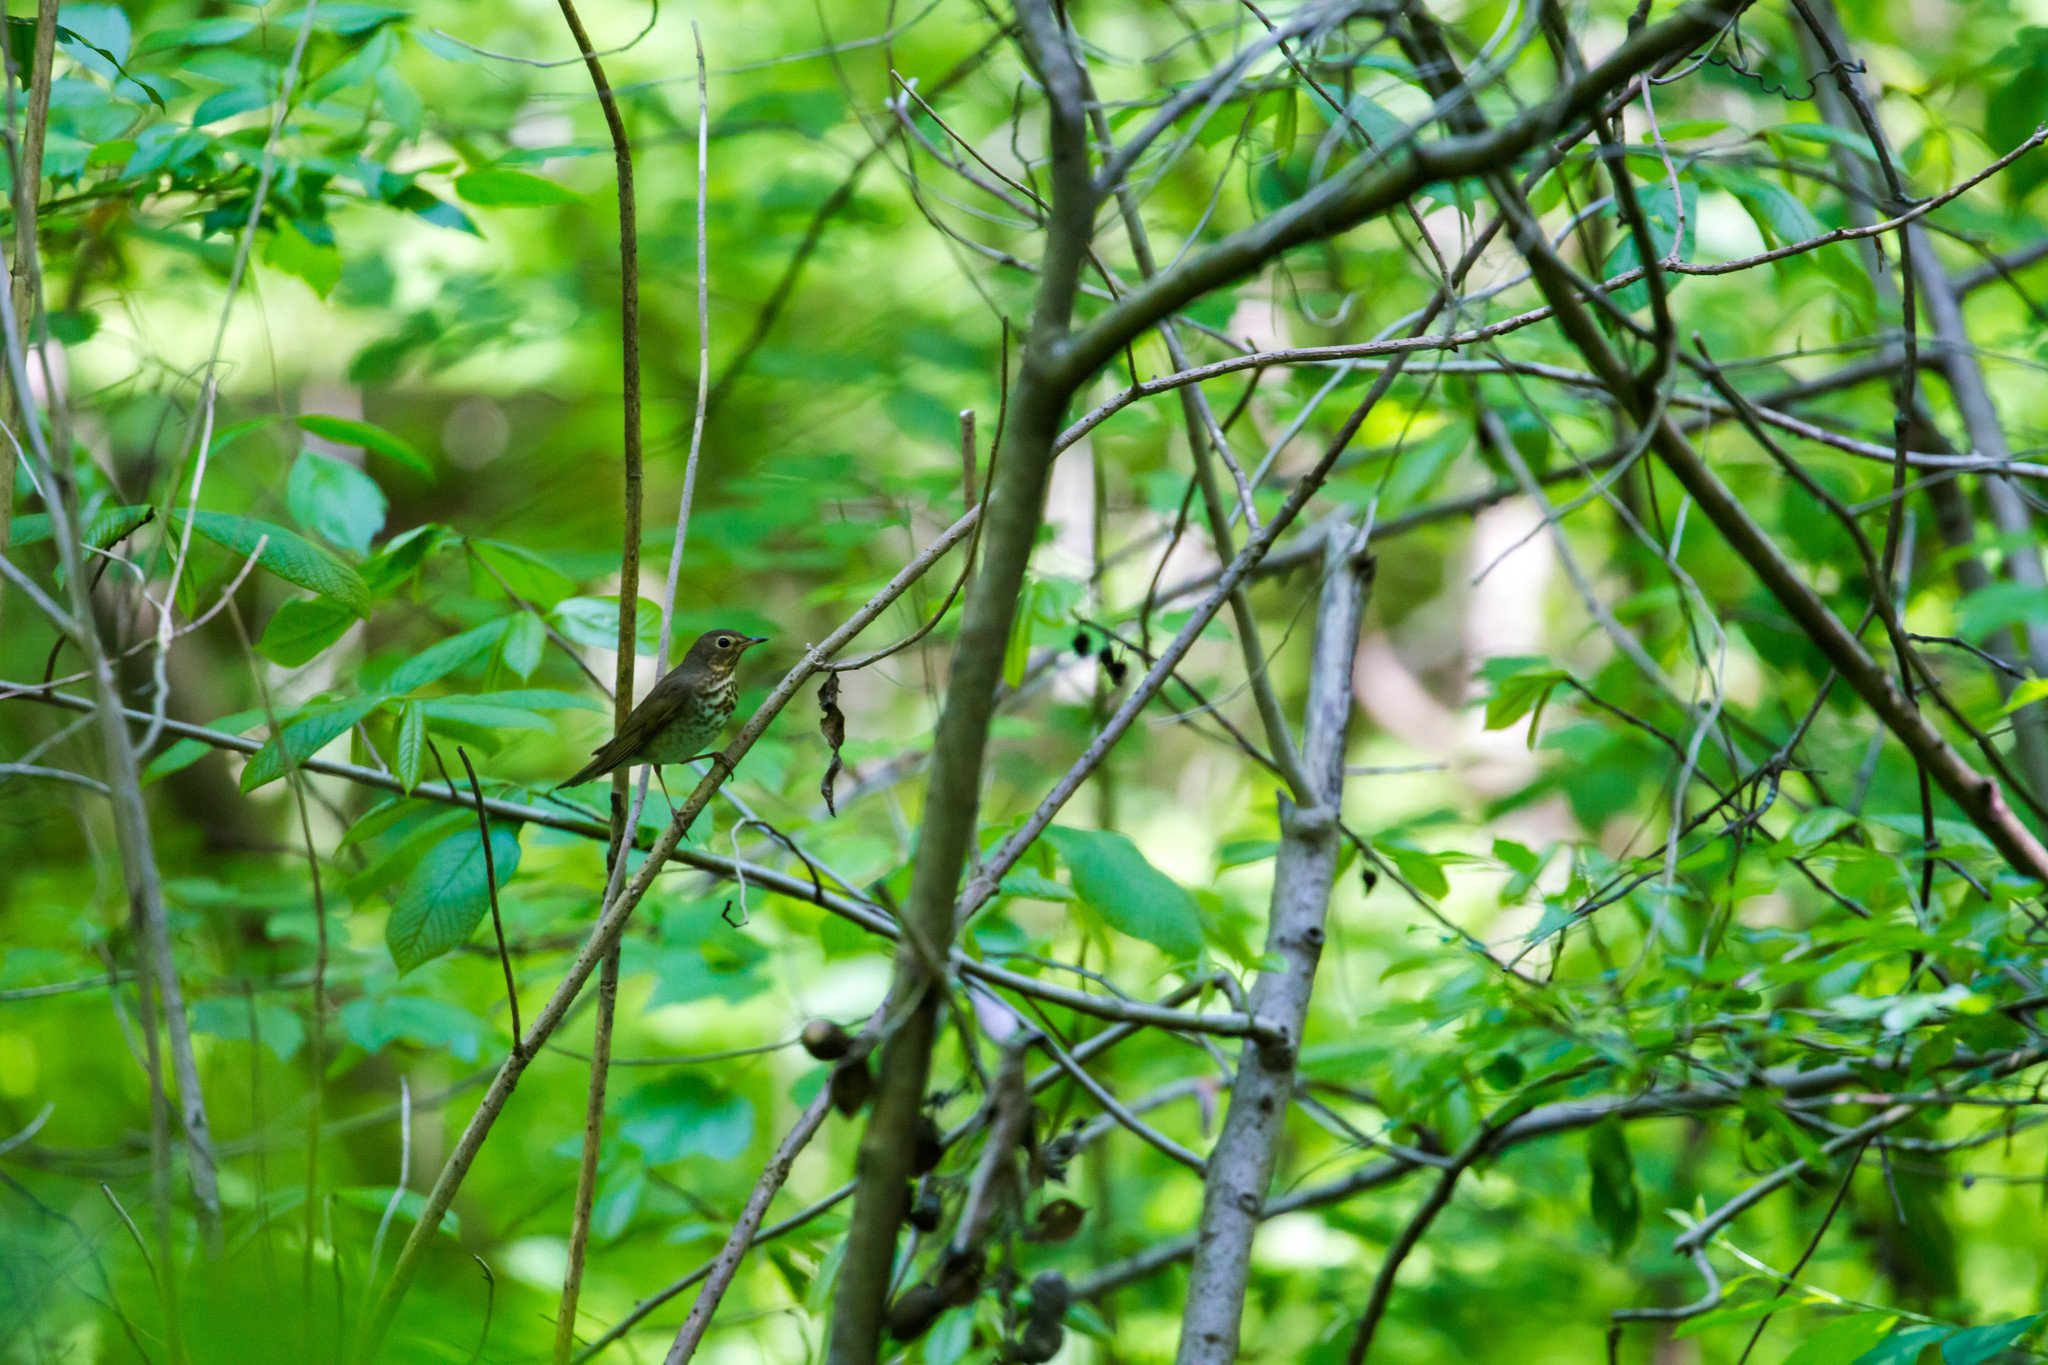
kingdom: Animalia
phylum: Chordata
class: Aves
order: Passeriformes
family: Turdidae
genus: Catharus
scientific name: Catharus ustulatus
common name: Swainson's thrush
